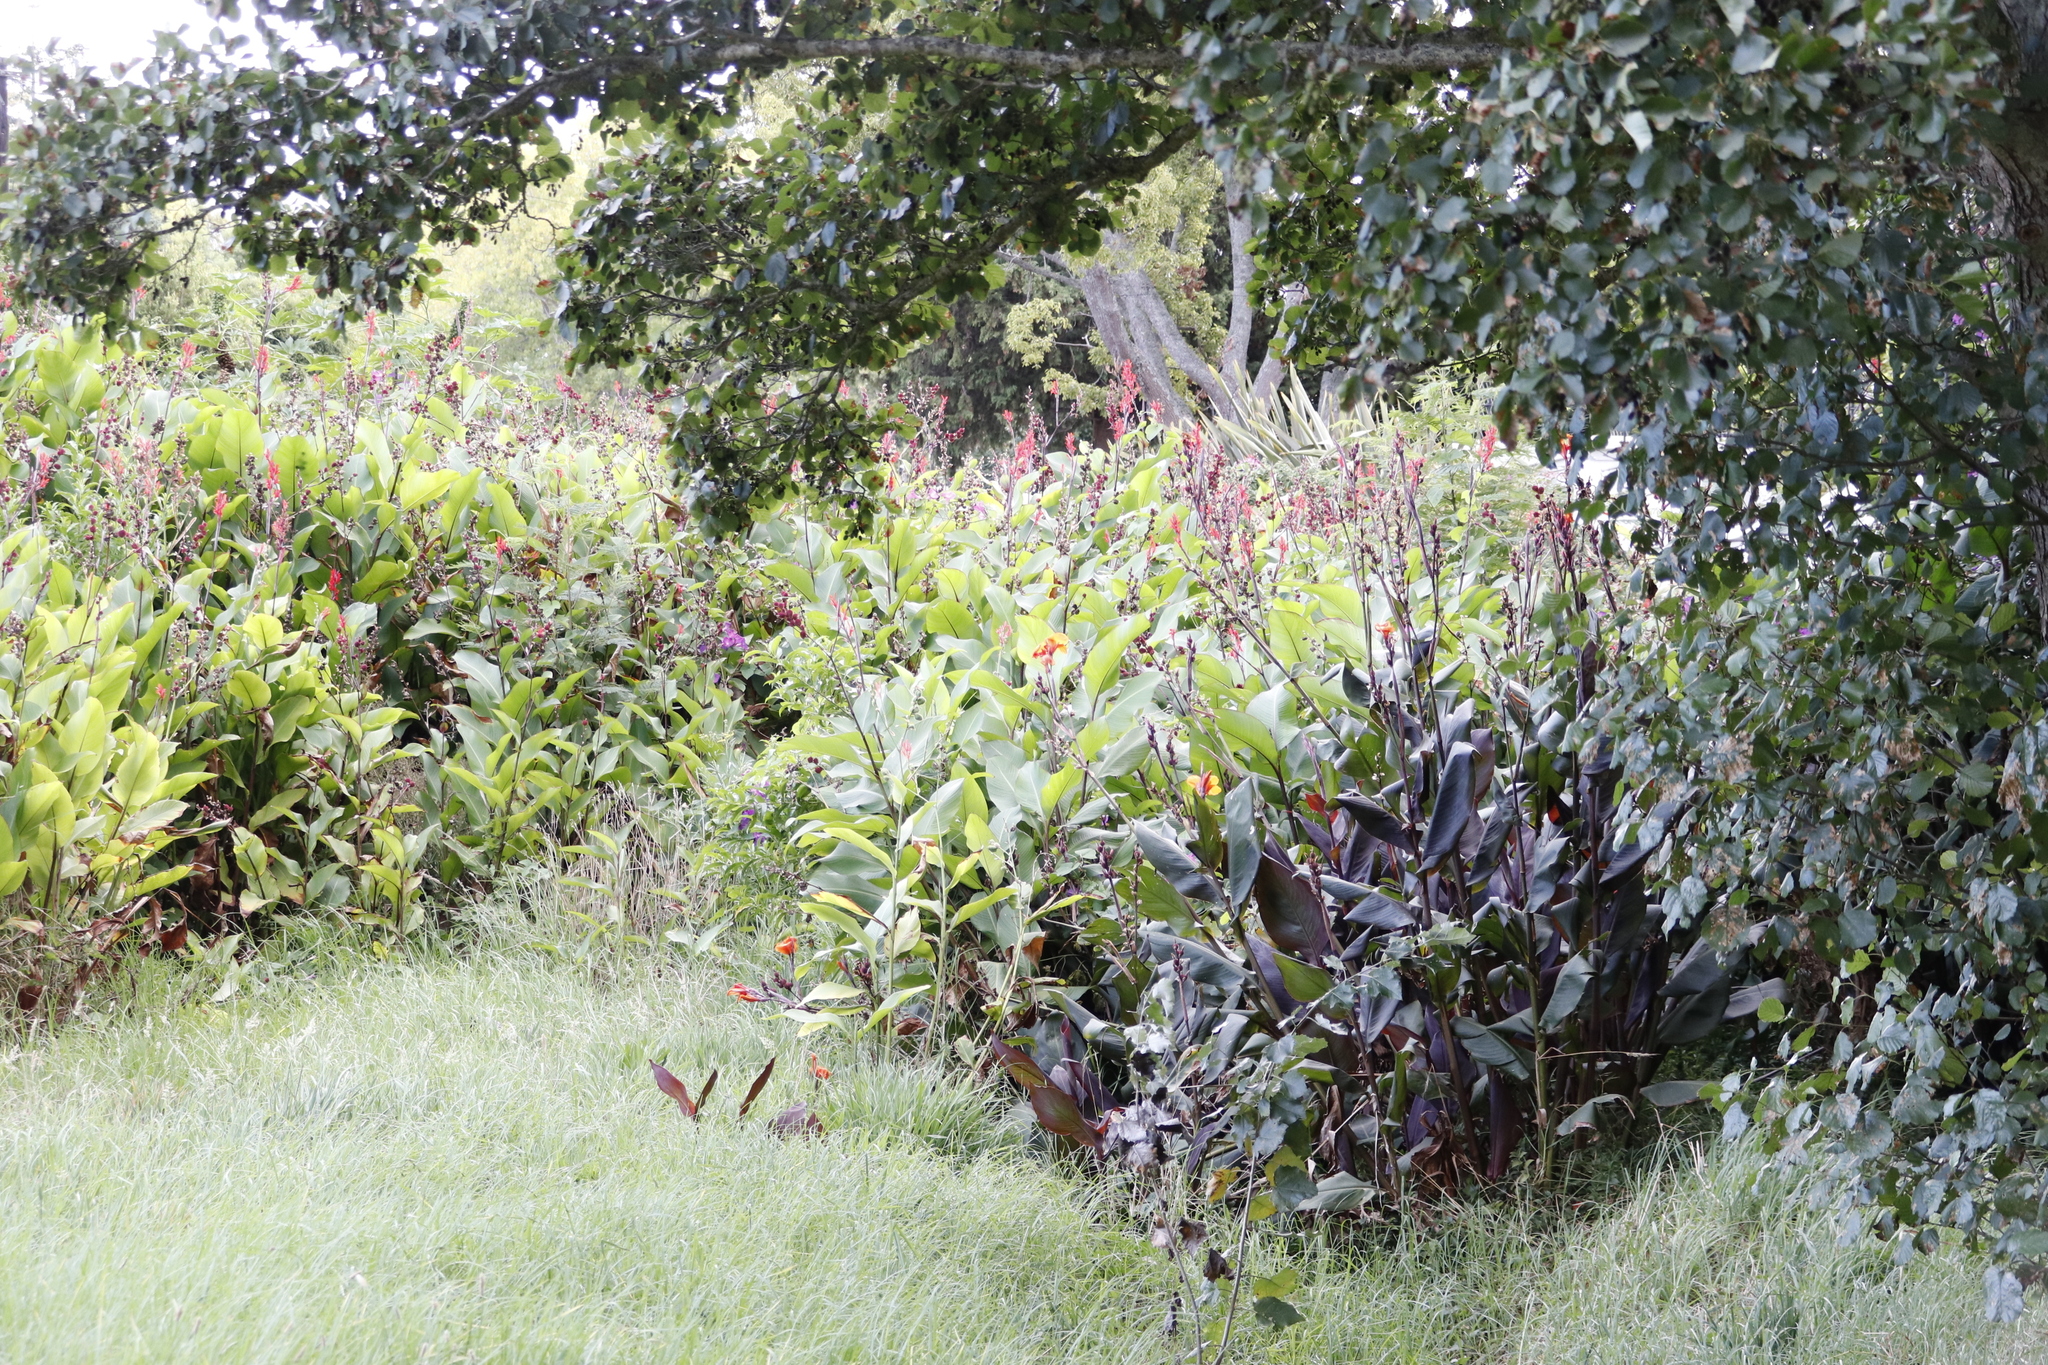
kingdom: Plantae
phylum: Tracheophyta
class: Liliopsida
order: Zingiberales
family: Cannaceae
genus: Canna
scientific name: Canna hybrida
